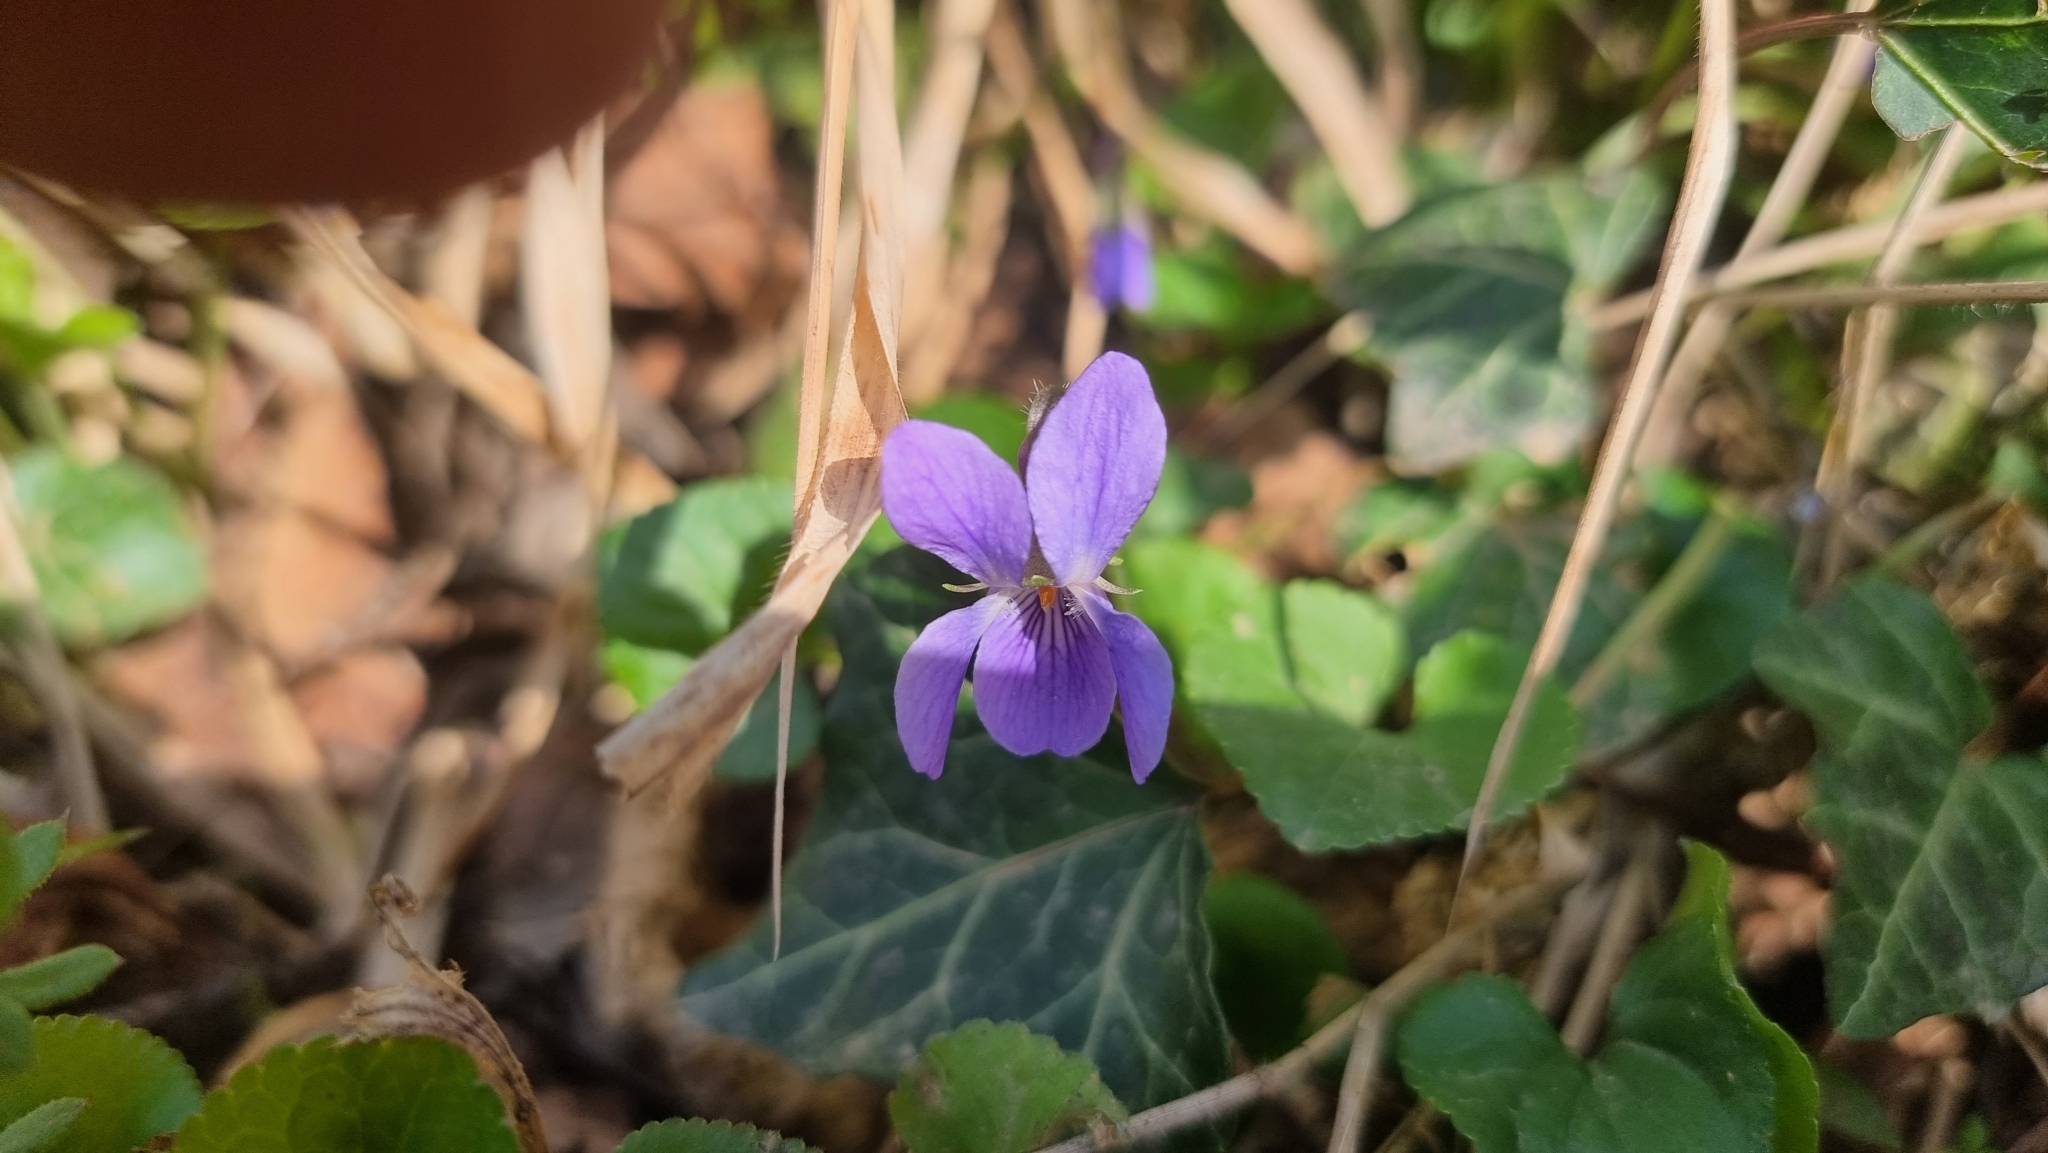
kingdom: Plantae
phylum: Tracheophyta
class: Magnoliopsida
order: Malpighiales
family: Violaceae
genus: Viola
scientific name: Viola odorata
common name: Sweet violet
